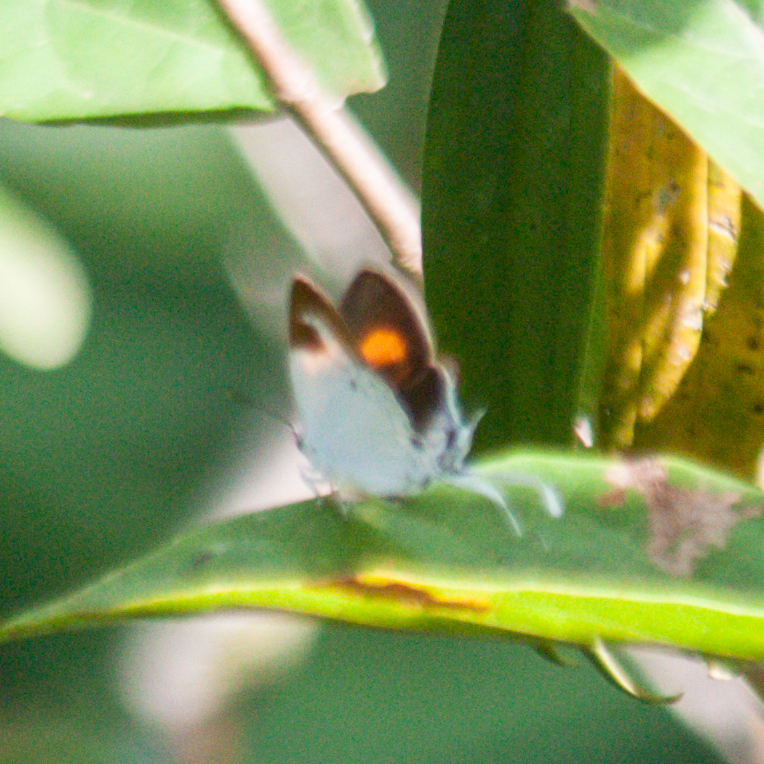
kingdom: Animalia
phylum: Arthropoda
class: Insecta
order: Lepidoptera
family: Lycaenidae
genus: Suasa
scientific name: Suasa lisides
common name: Red imperial
